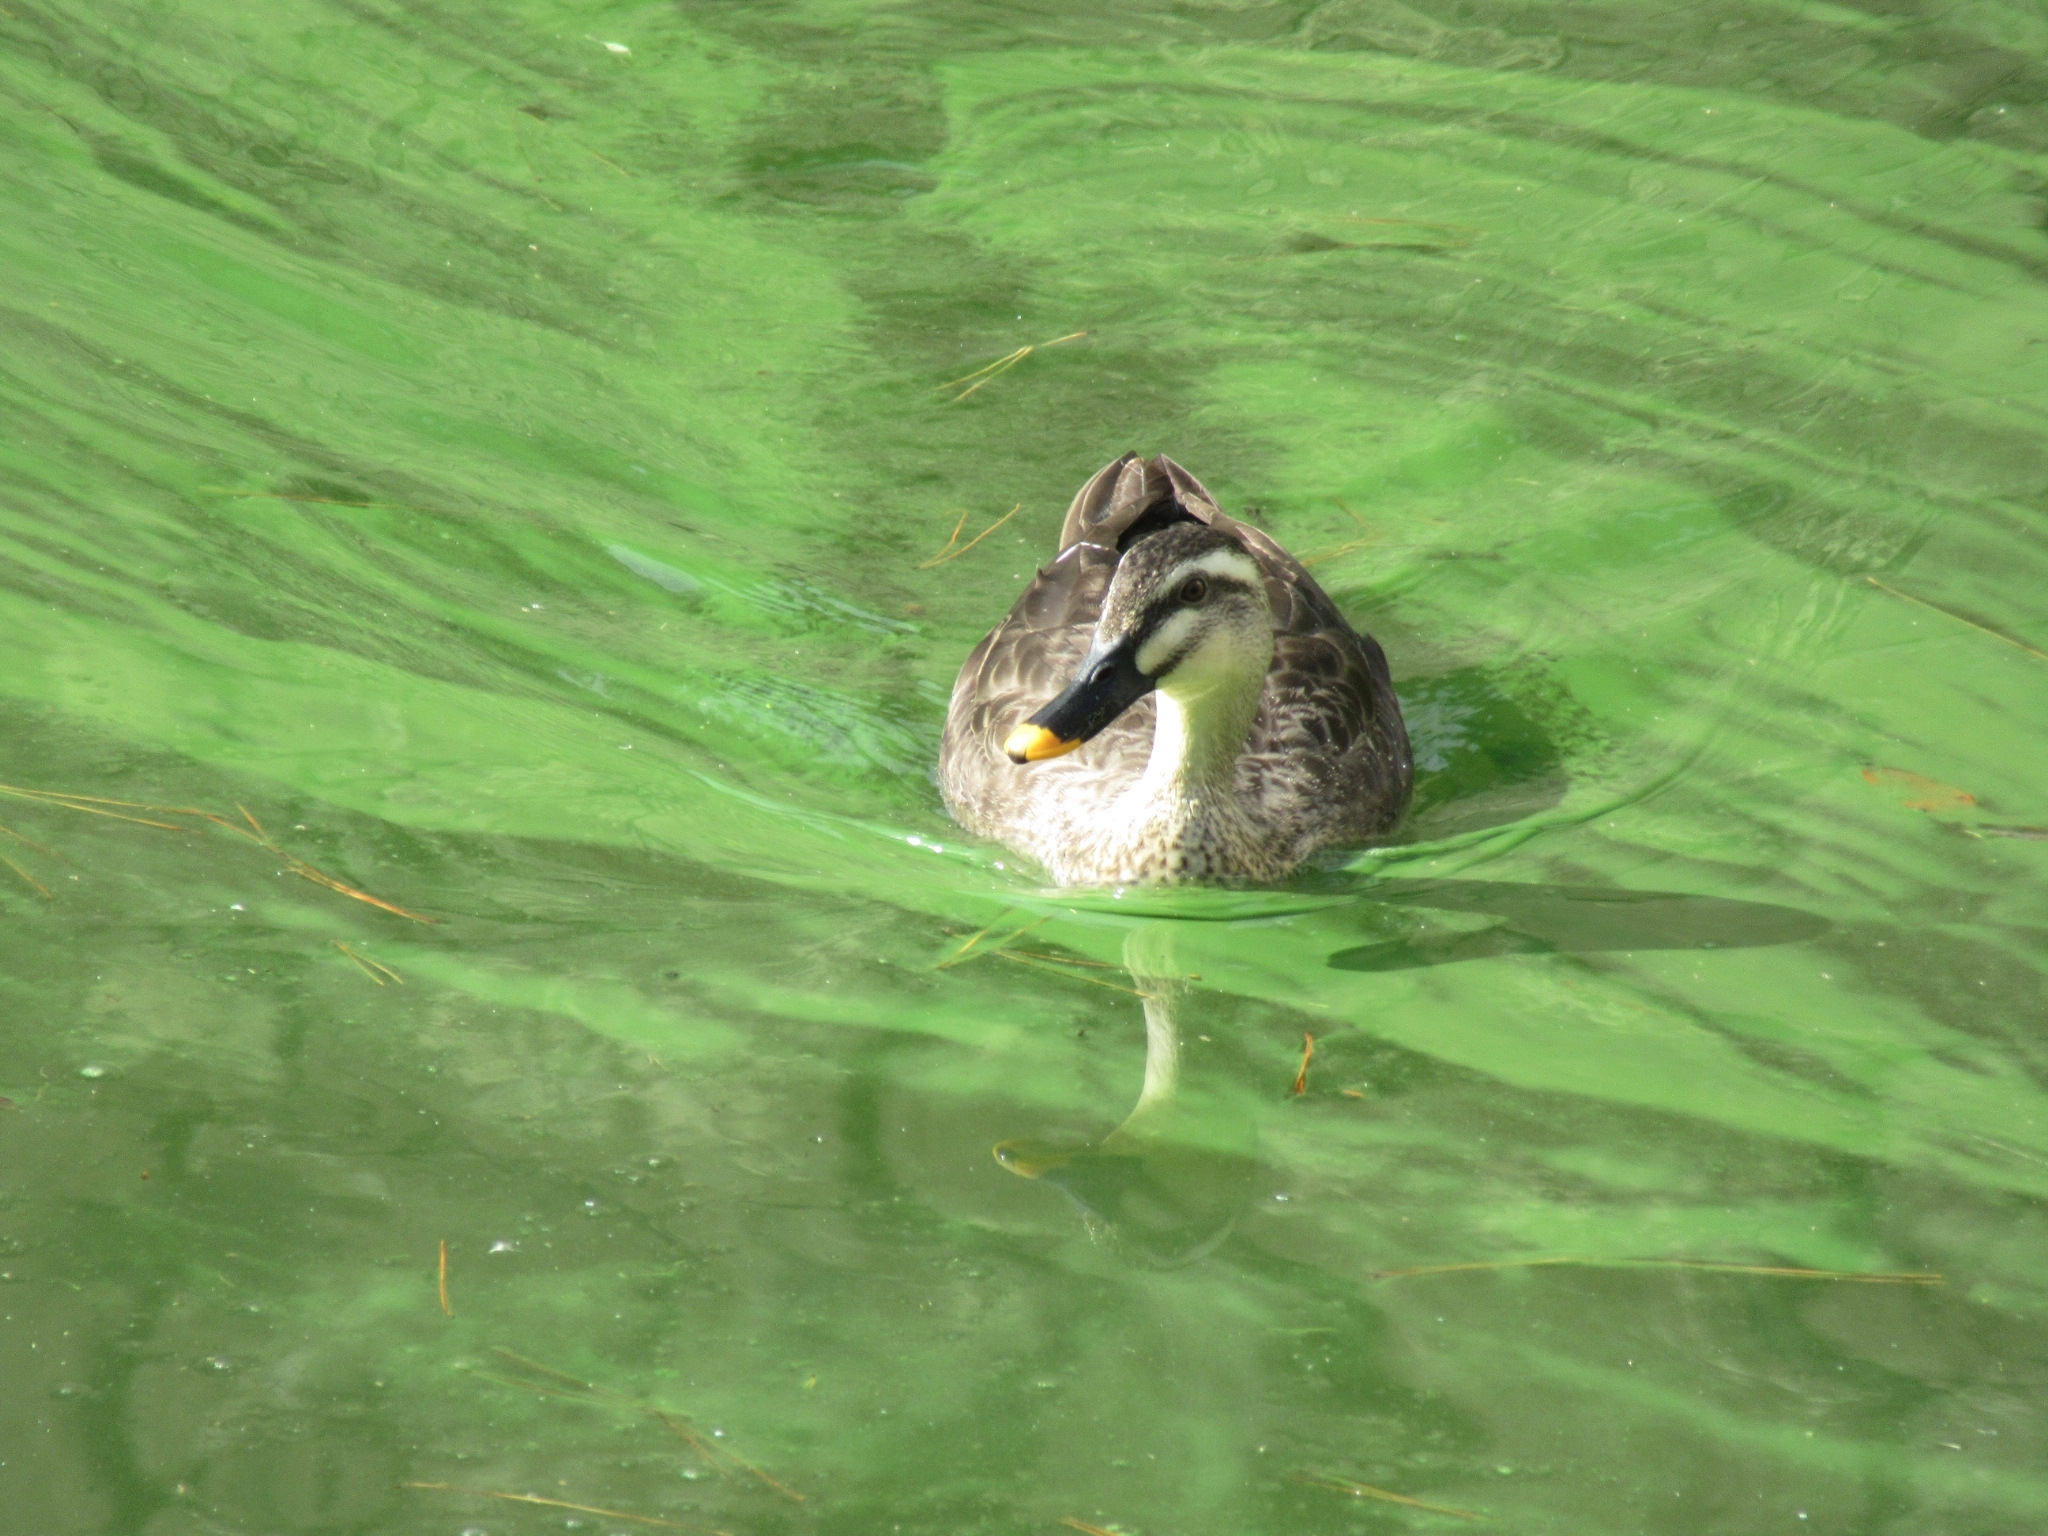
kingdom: Animalia
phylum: Chordata
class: Aves
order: Anseriformes
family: Anatidae
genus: Anas
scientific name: Anas zonorhyncha
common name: Eastern spot-billed duck
